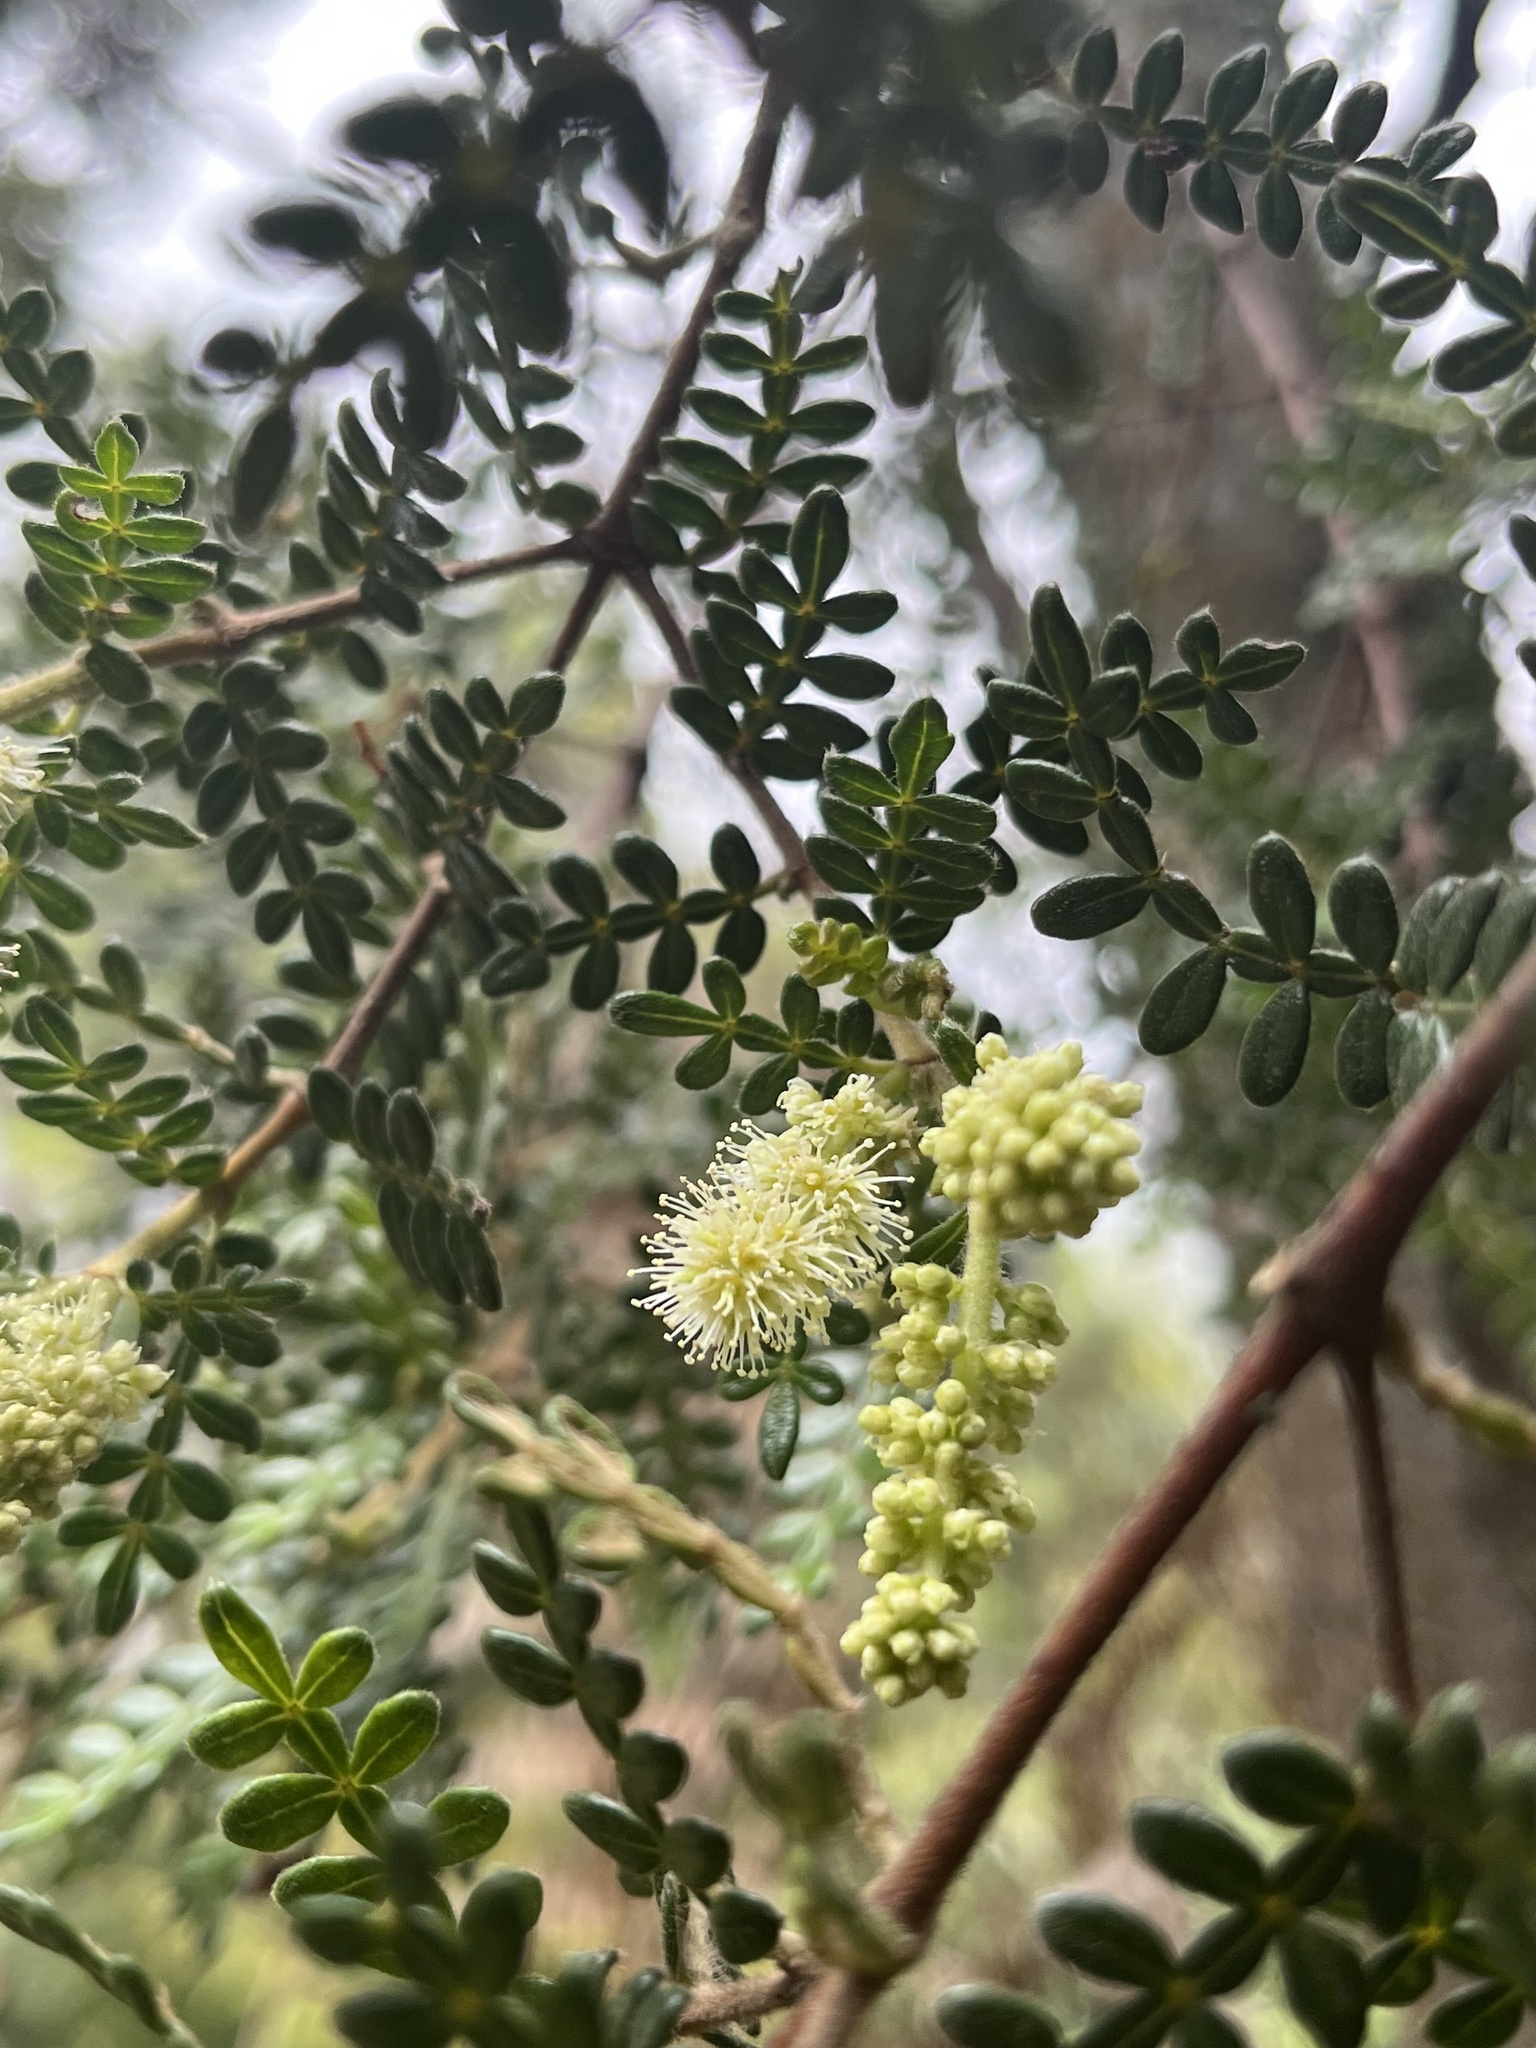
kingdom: Plantae
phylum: Tracheophyta
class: Magnoliopsida
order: Oxalidales
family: Cunoniaceae
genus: Weinmannia
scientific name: Weinmannia tomentosa
